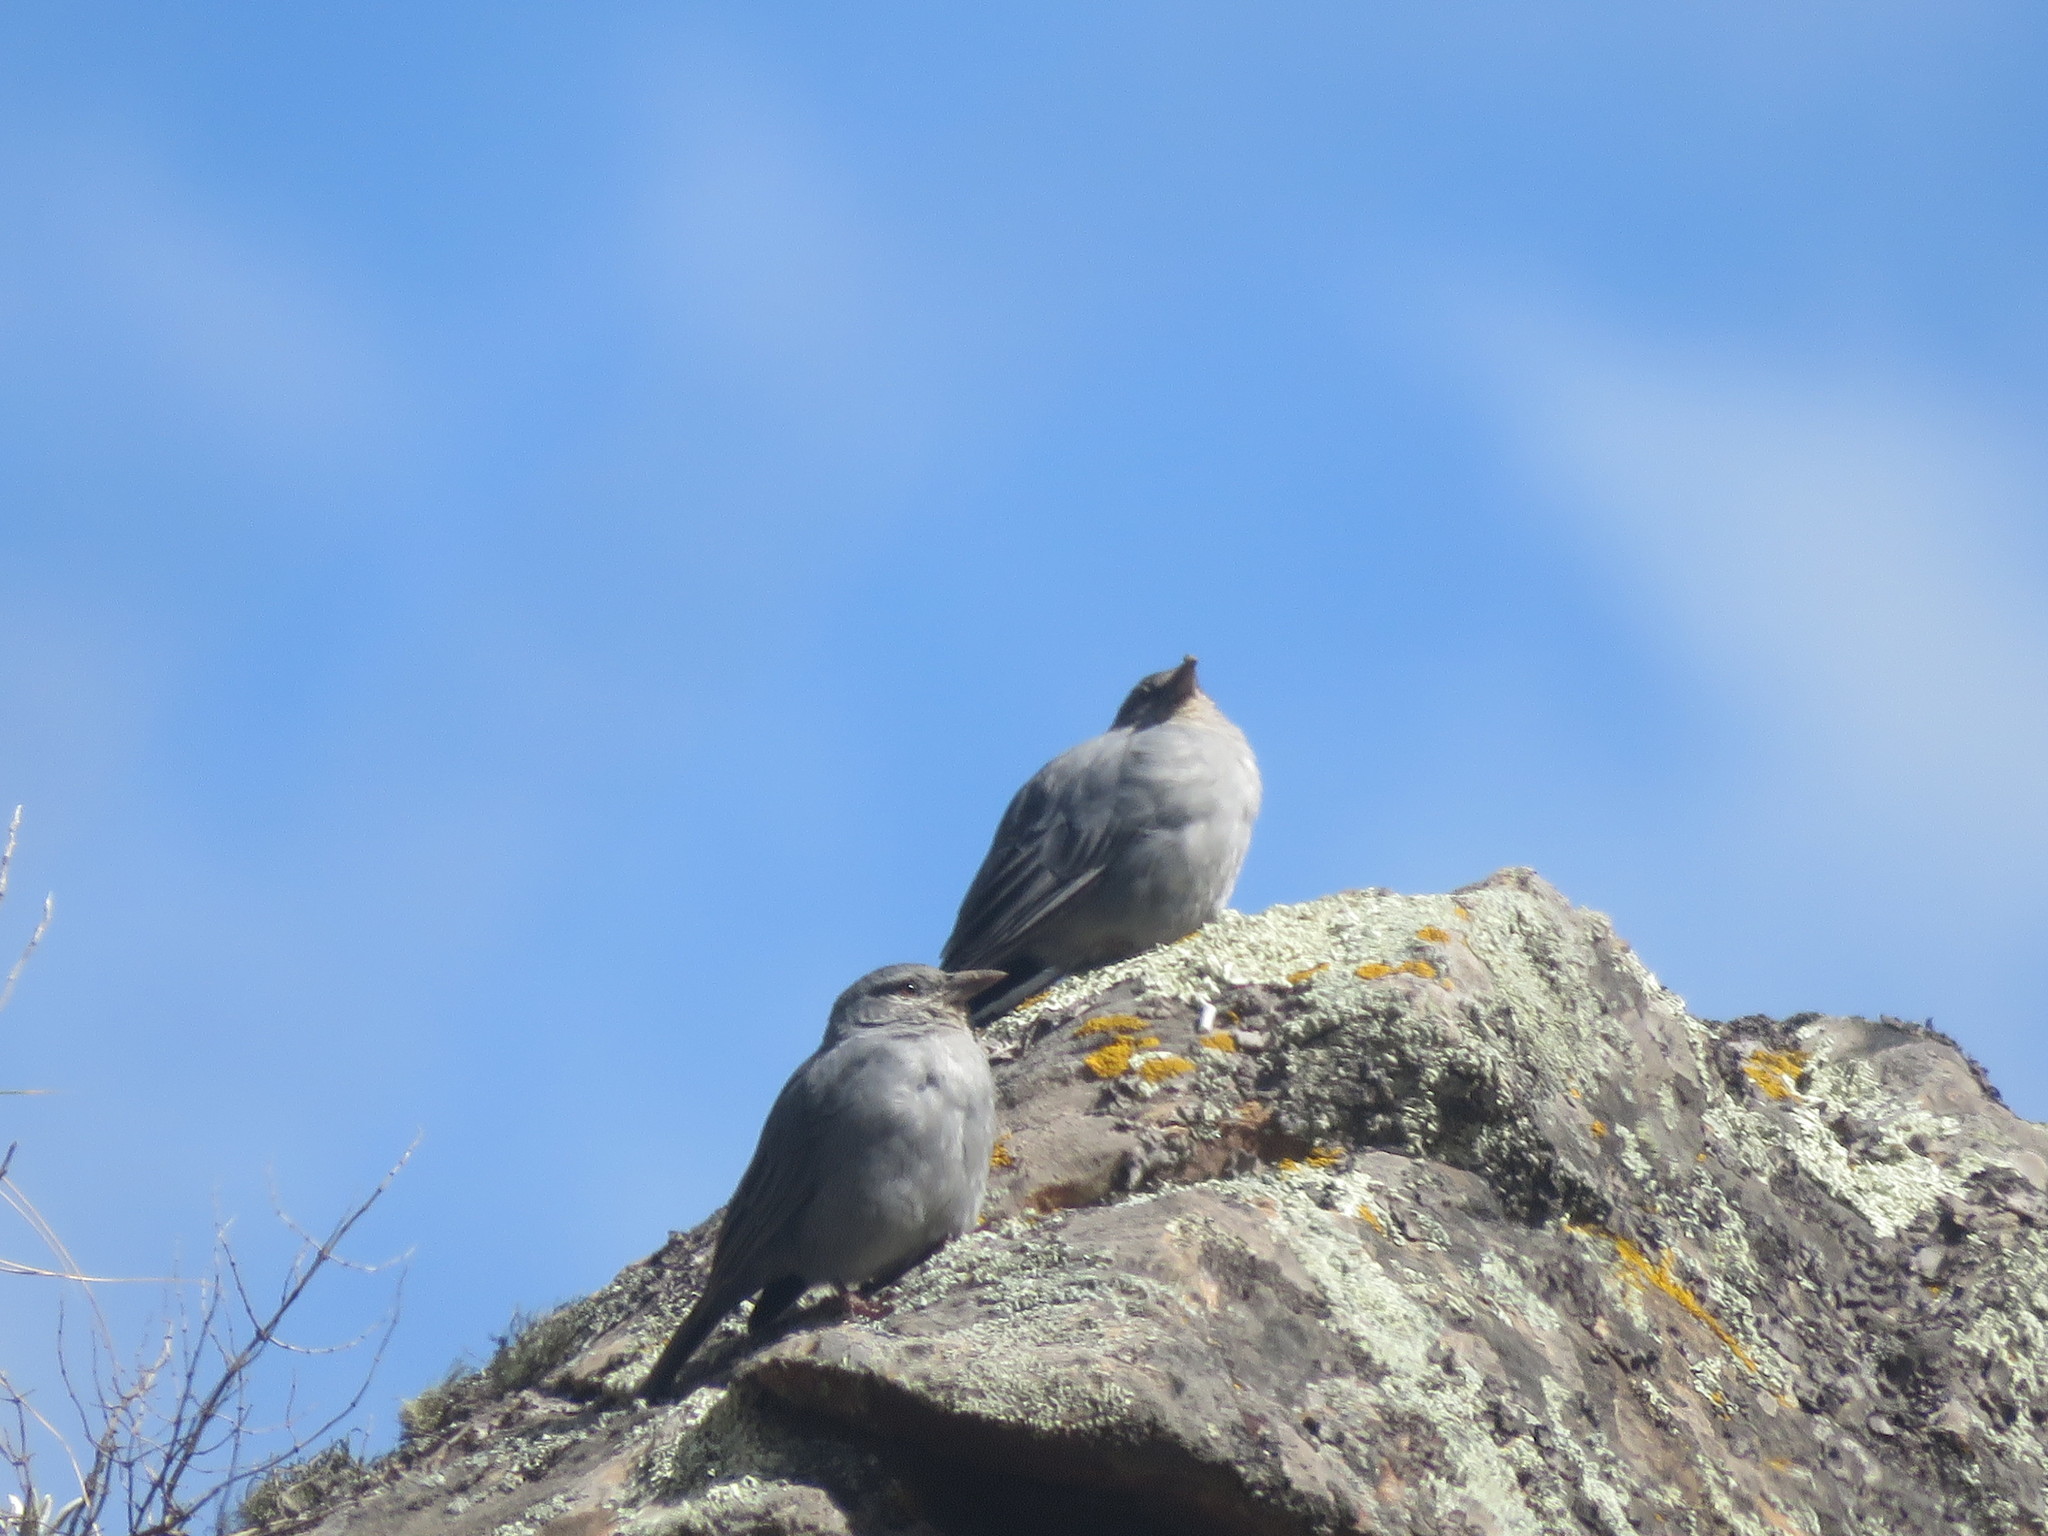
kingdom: Animalia
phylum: Chordata
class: Aves
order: Passeriformes
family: Thraupidae
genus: Idiopsar
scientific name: Idiopsar brachyurus
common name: Short-tailed finch
